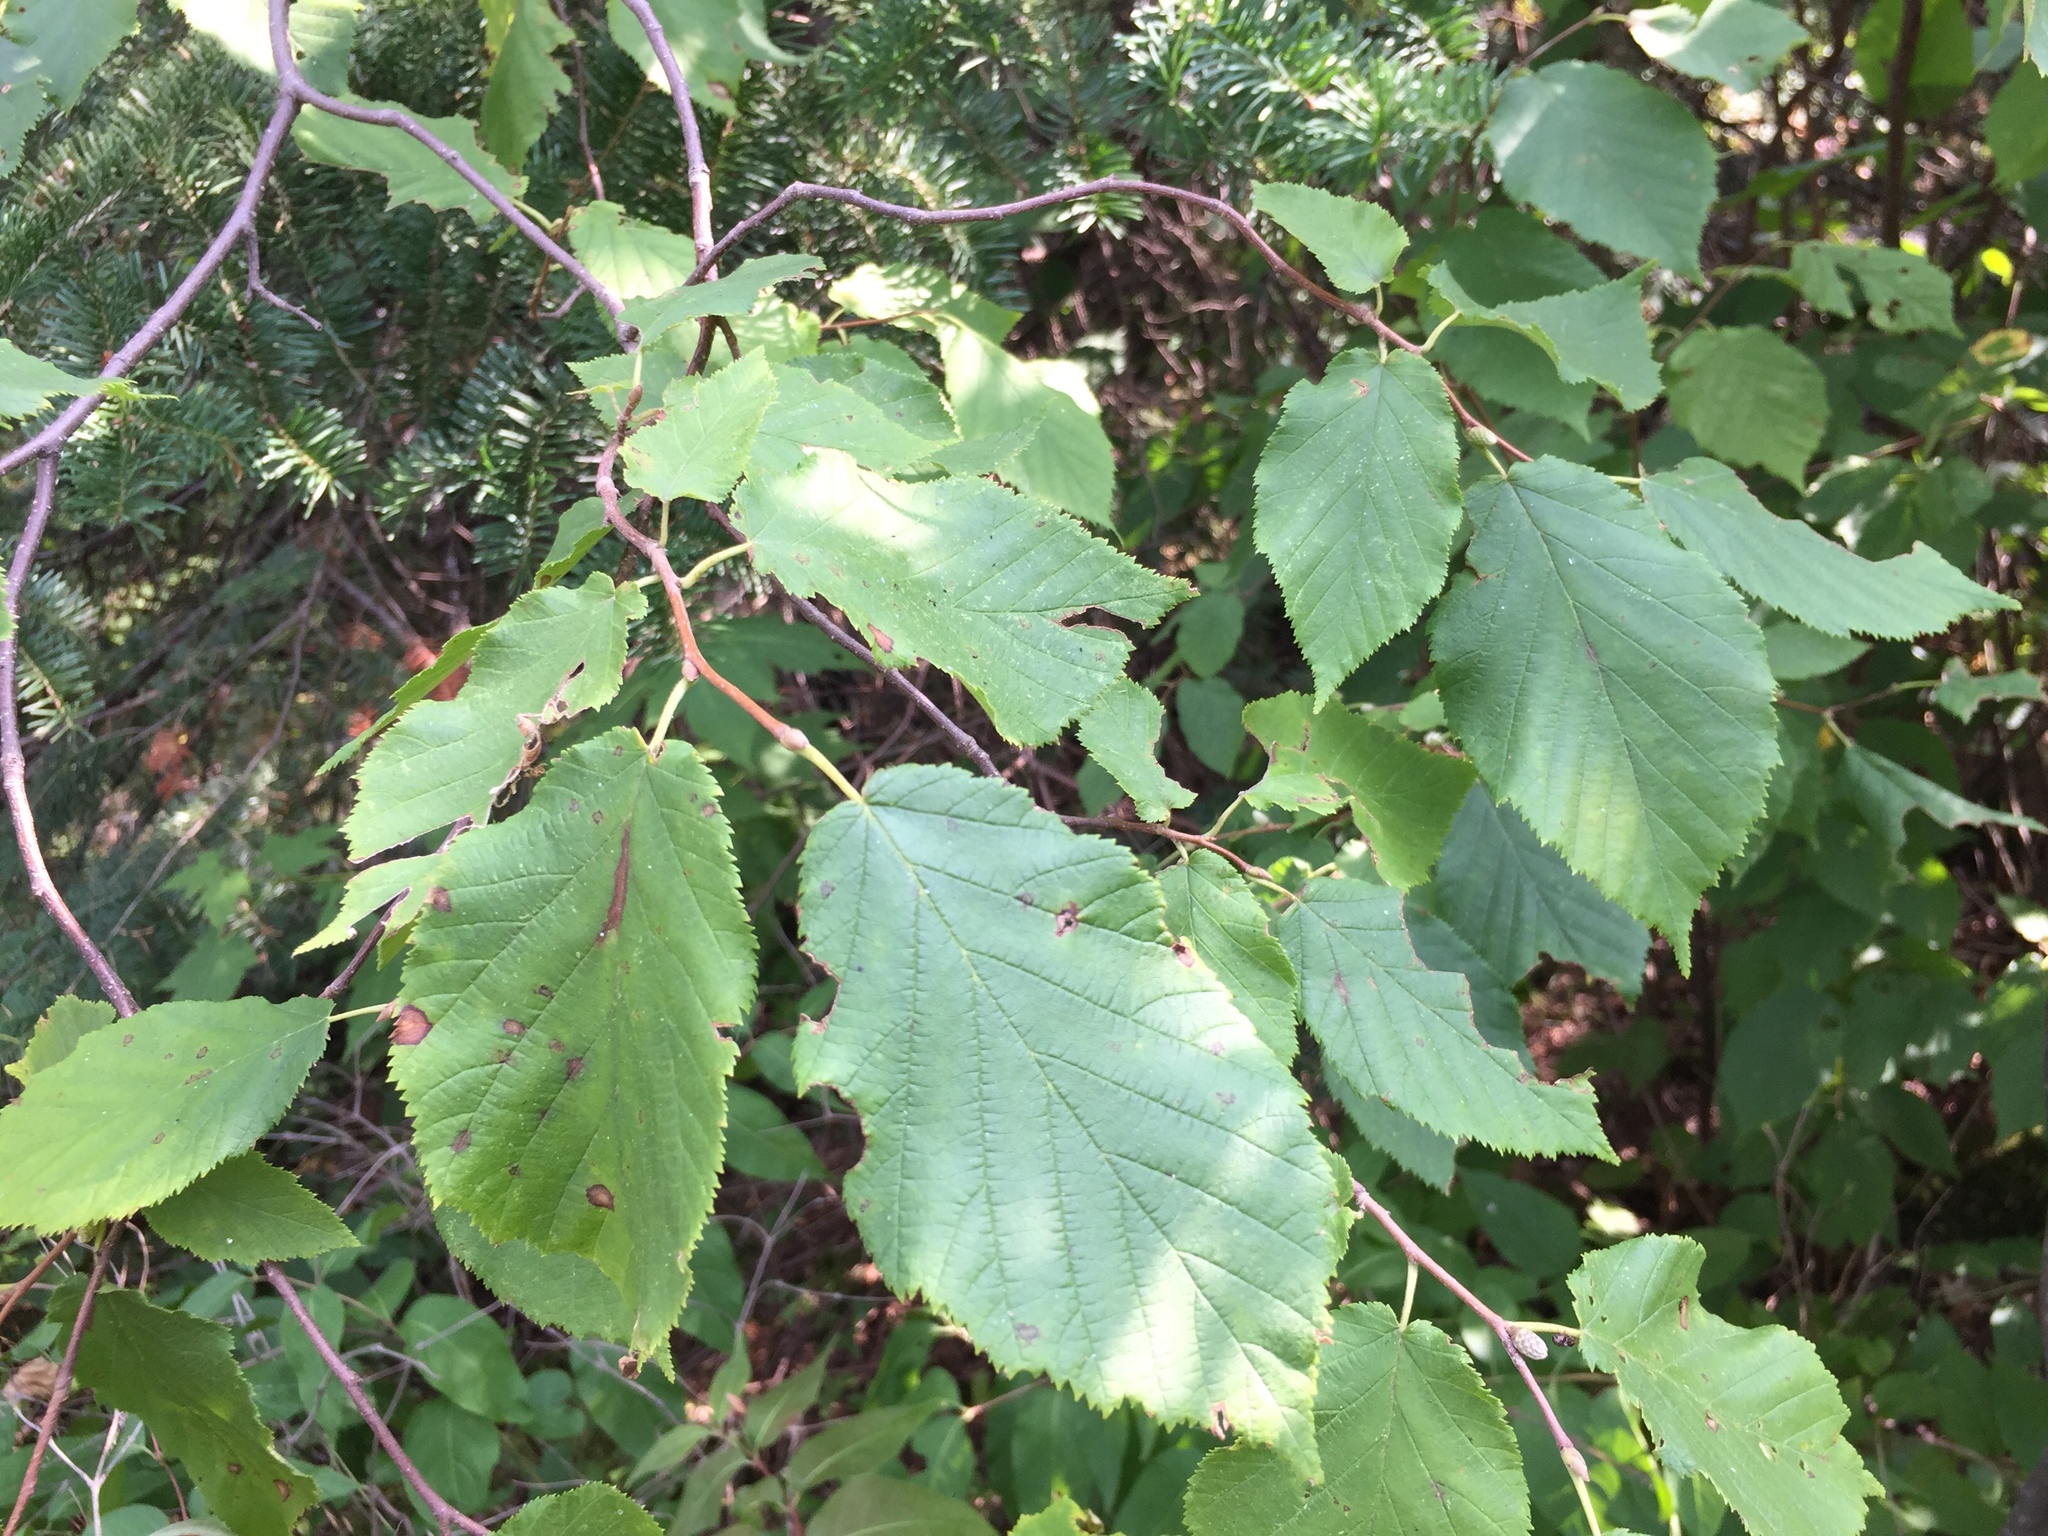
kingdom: Plantae
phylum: Tracheophyta
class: Magnoliopsida
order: Fagales
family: Betulaceae
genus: Corylus
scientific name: Corylus cornuta
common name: Beaked hazel
